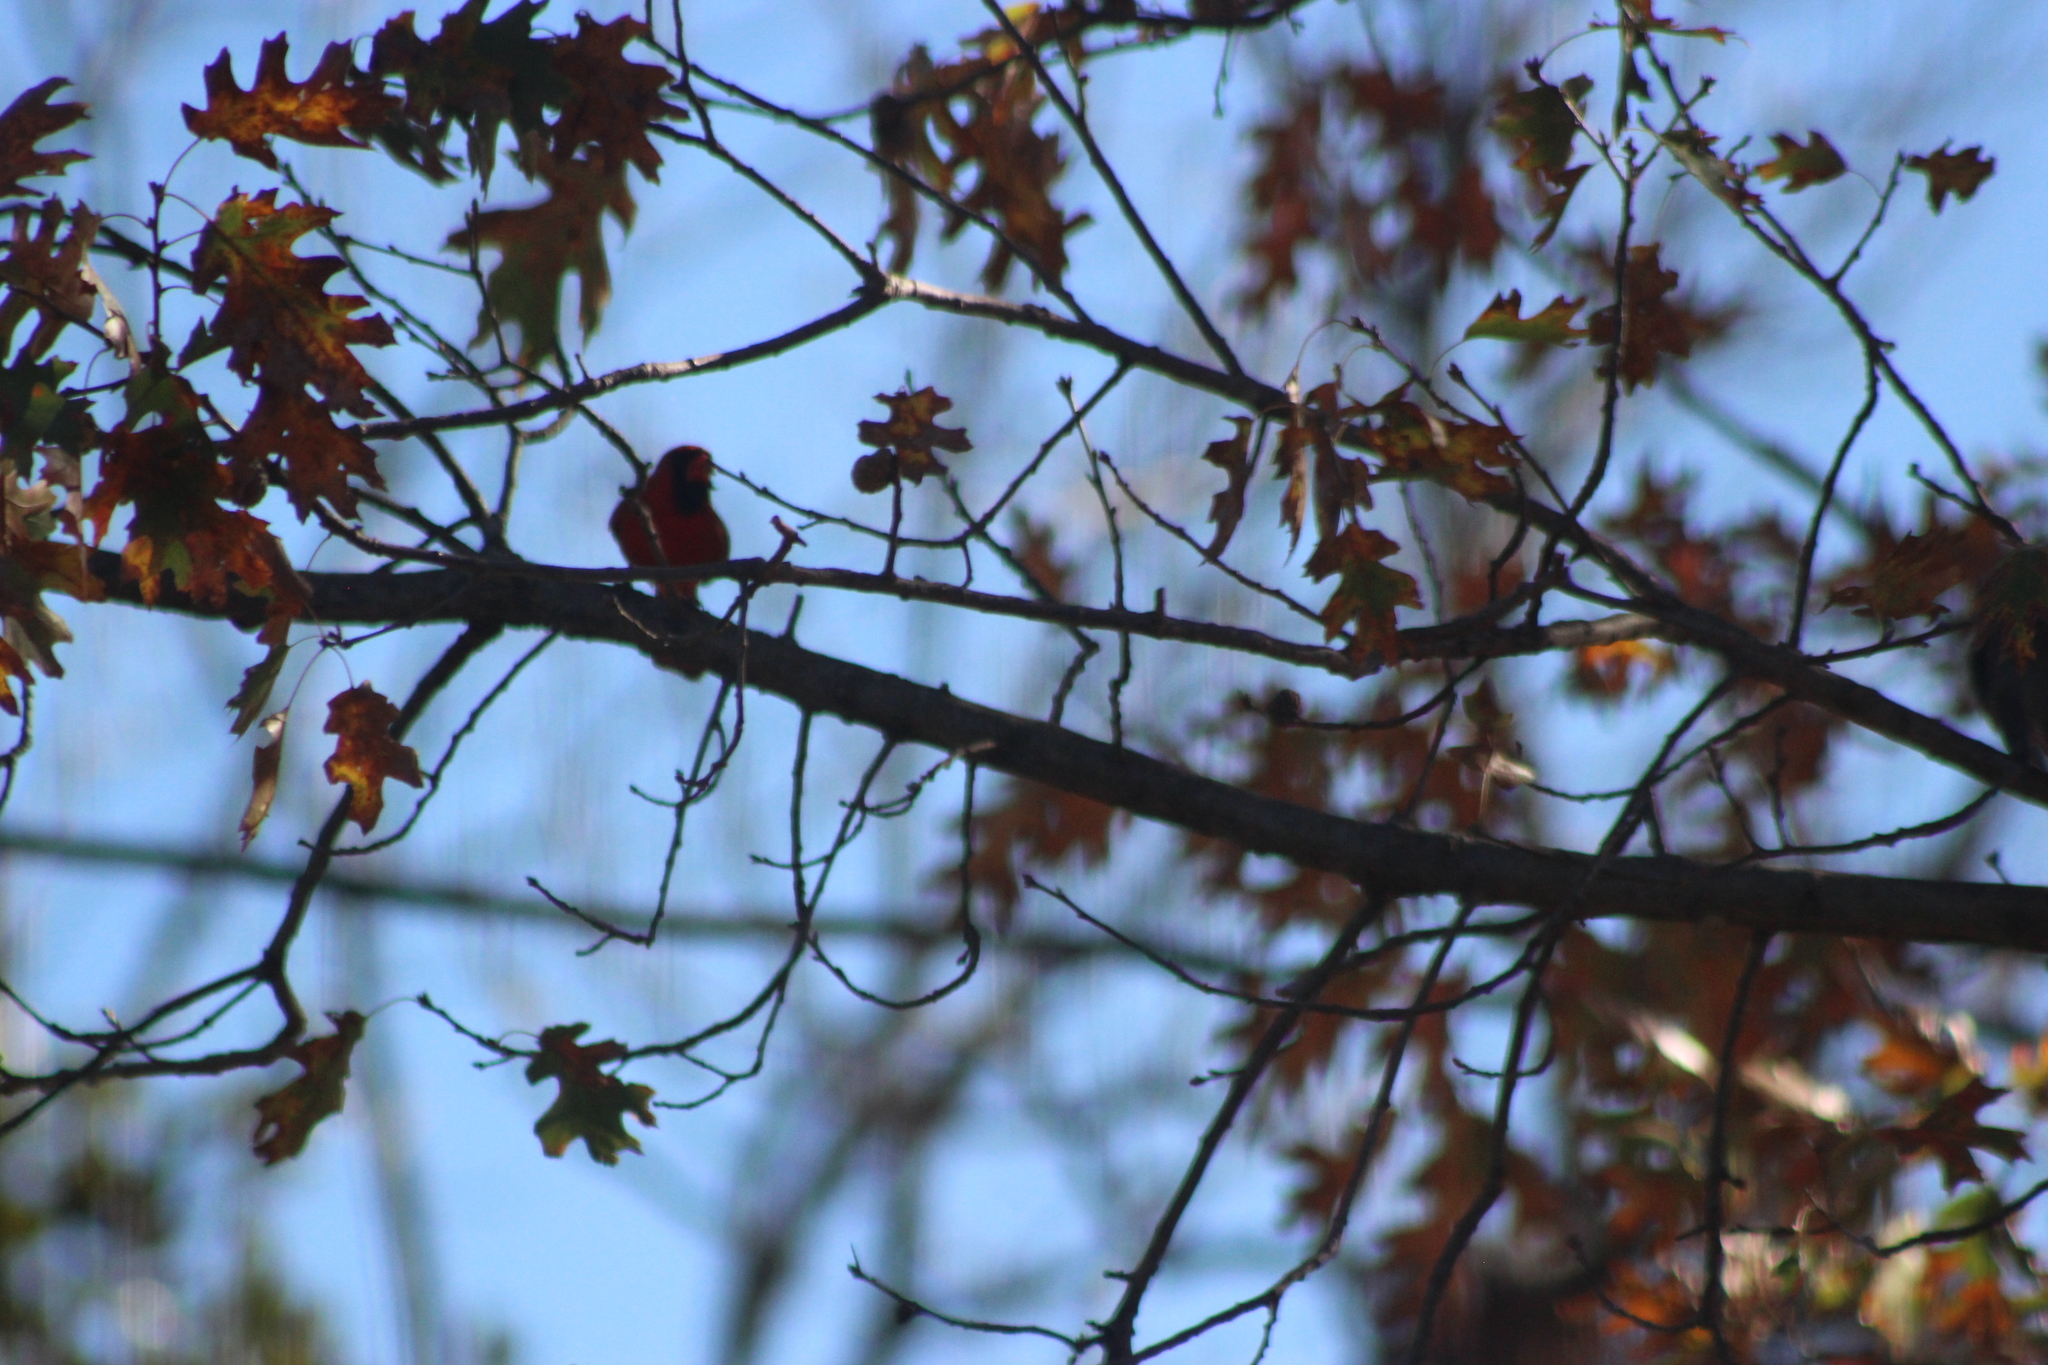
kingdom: Animalia
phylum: Chordata
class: Aves
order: Passeriformes
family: Cardinalidae
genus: Cardinalis
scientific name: Cardinalis cardinalis
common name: Northern cardinal
